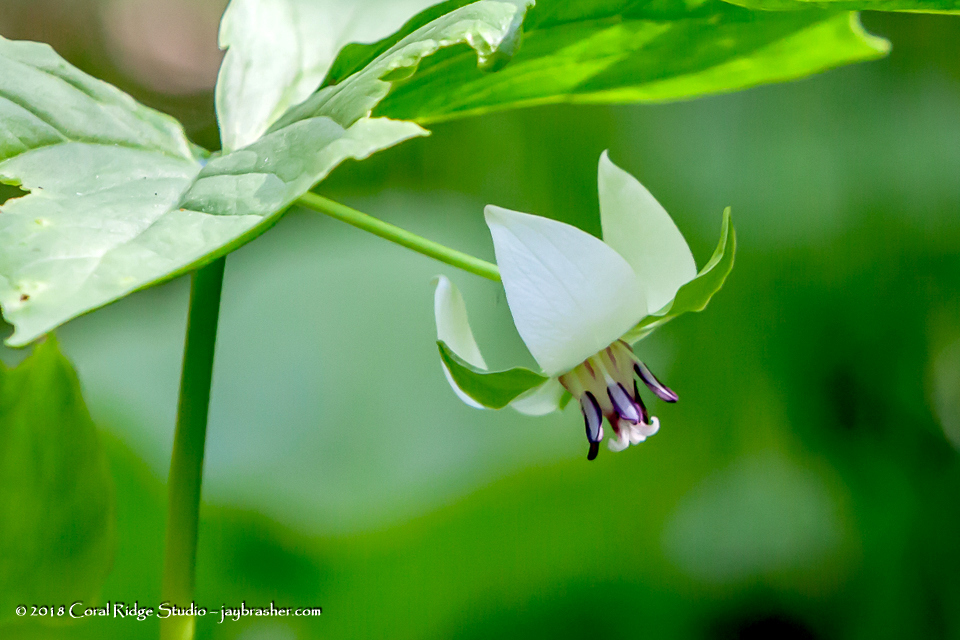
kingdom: Plantae
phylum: Tracheophyta
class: Liliopsida
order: Liliales
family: Melanthiaceae
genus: Trillium
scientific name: Trillium cernuum
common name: Nodding trillium
